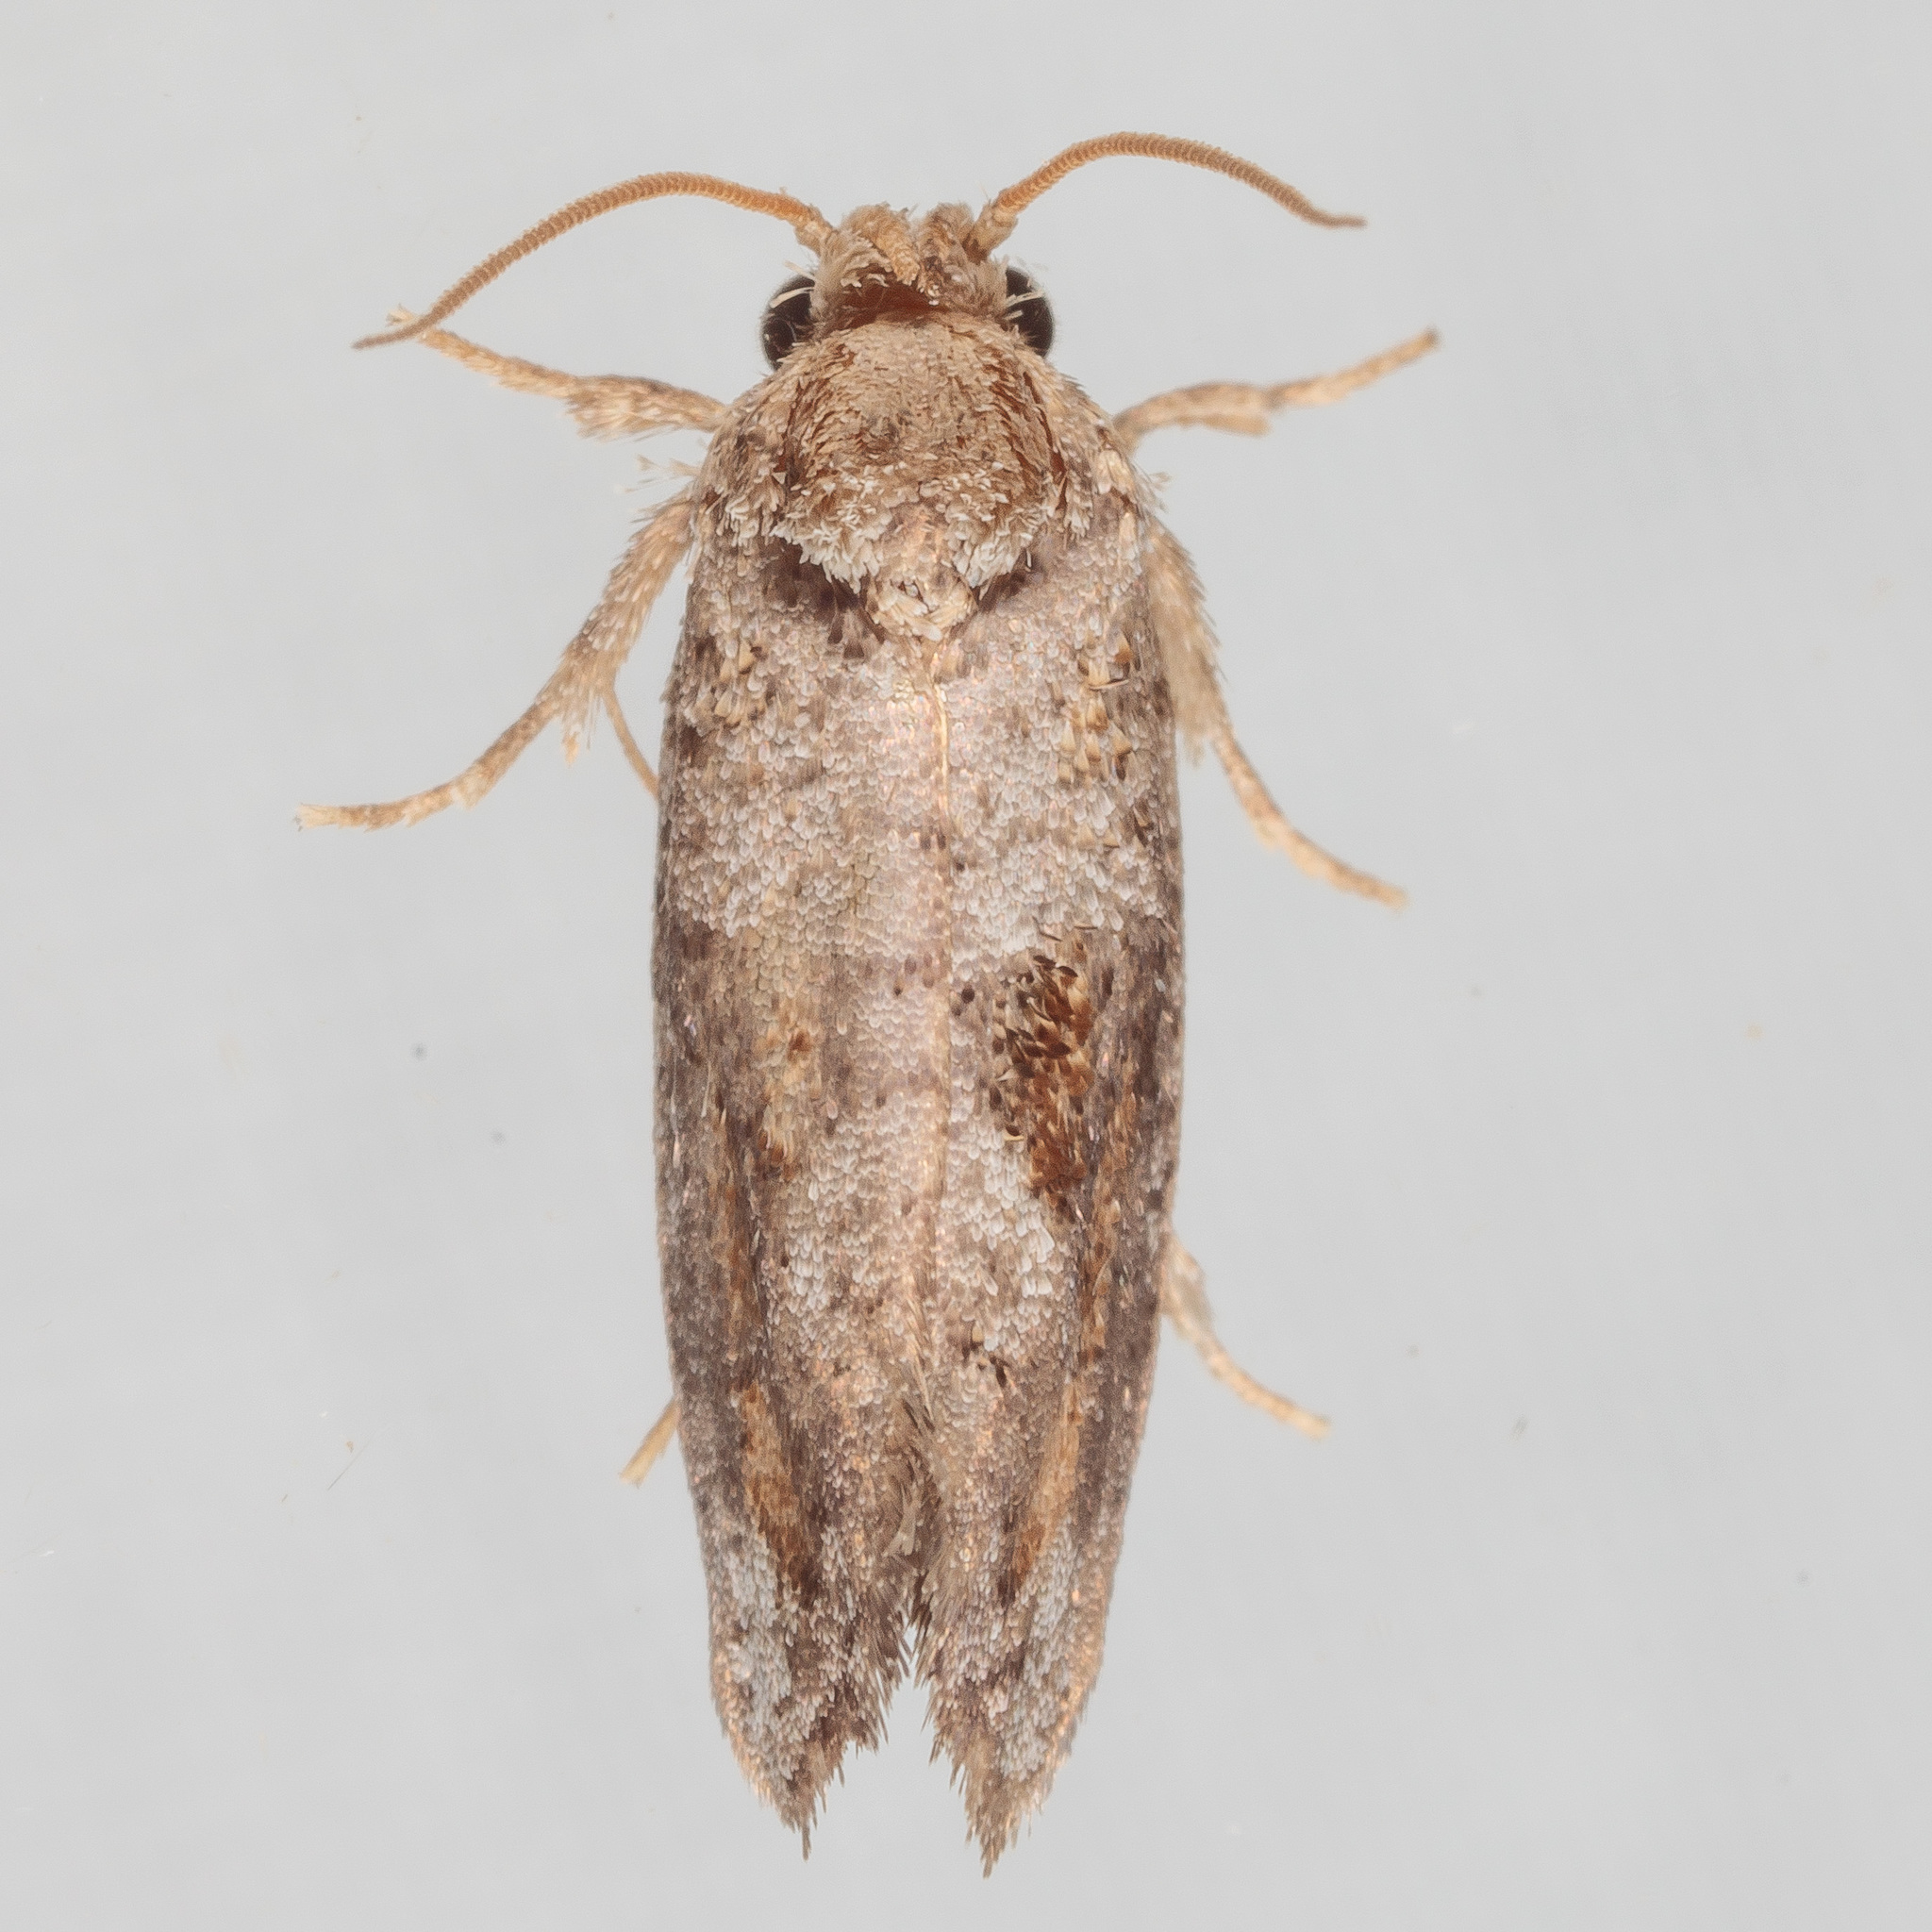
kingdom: Animalia
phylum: Arthropoda
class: Insecta
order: Lepidoptera
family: Tineidae
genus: Acrolophus
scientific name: Acrolophus piger
